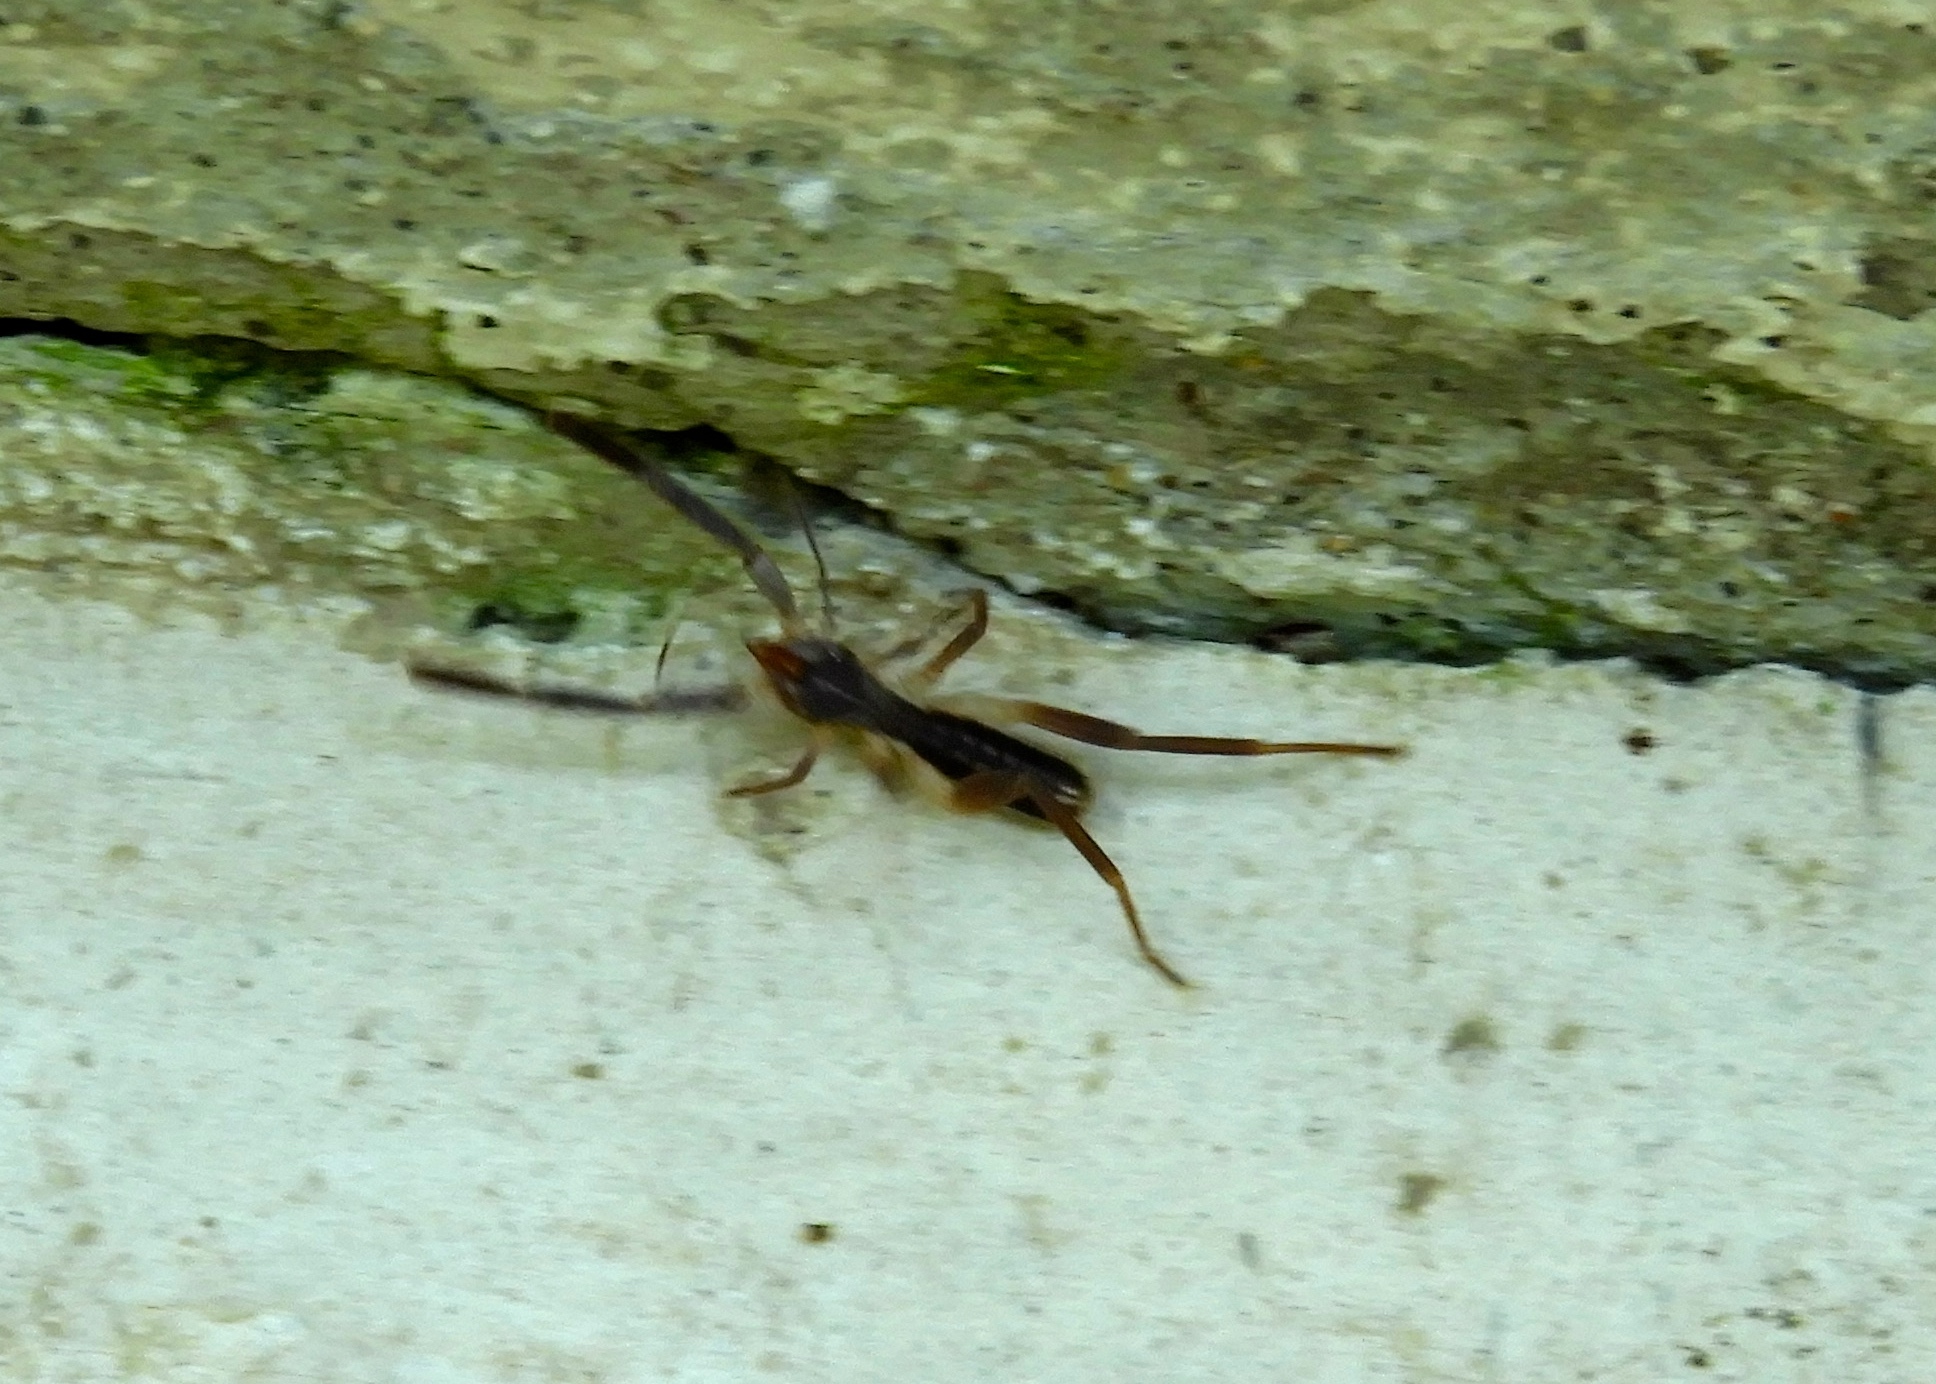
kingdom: Animalia
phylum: Arthropoda
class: Arachnida
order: Solifugae
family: Ammotrechidae
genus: Ammotrechula
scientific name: Ammotrechula boneti
